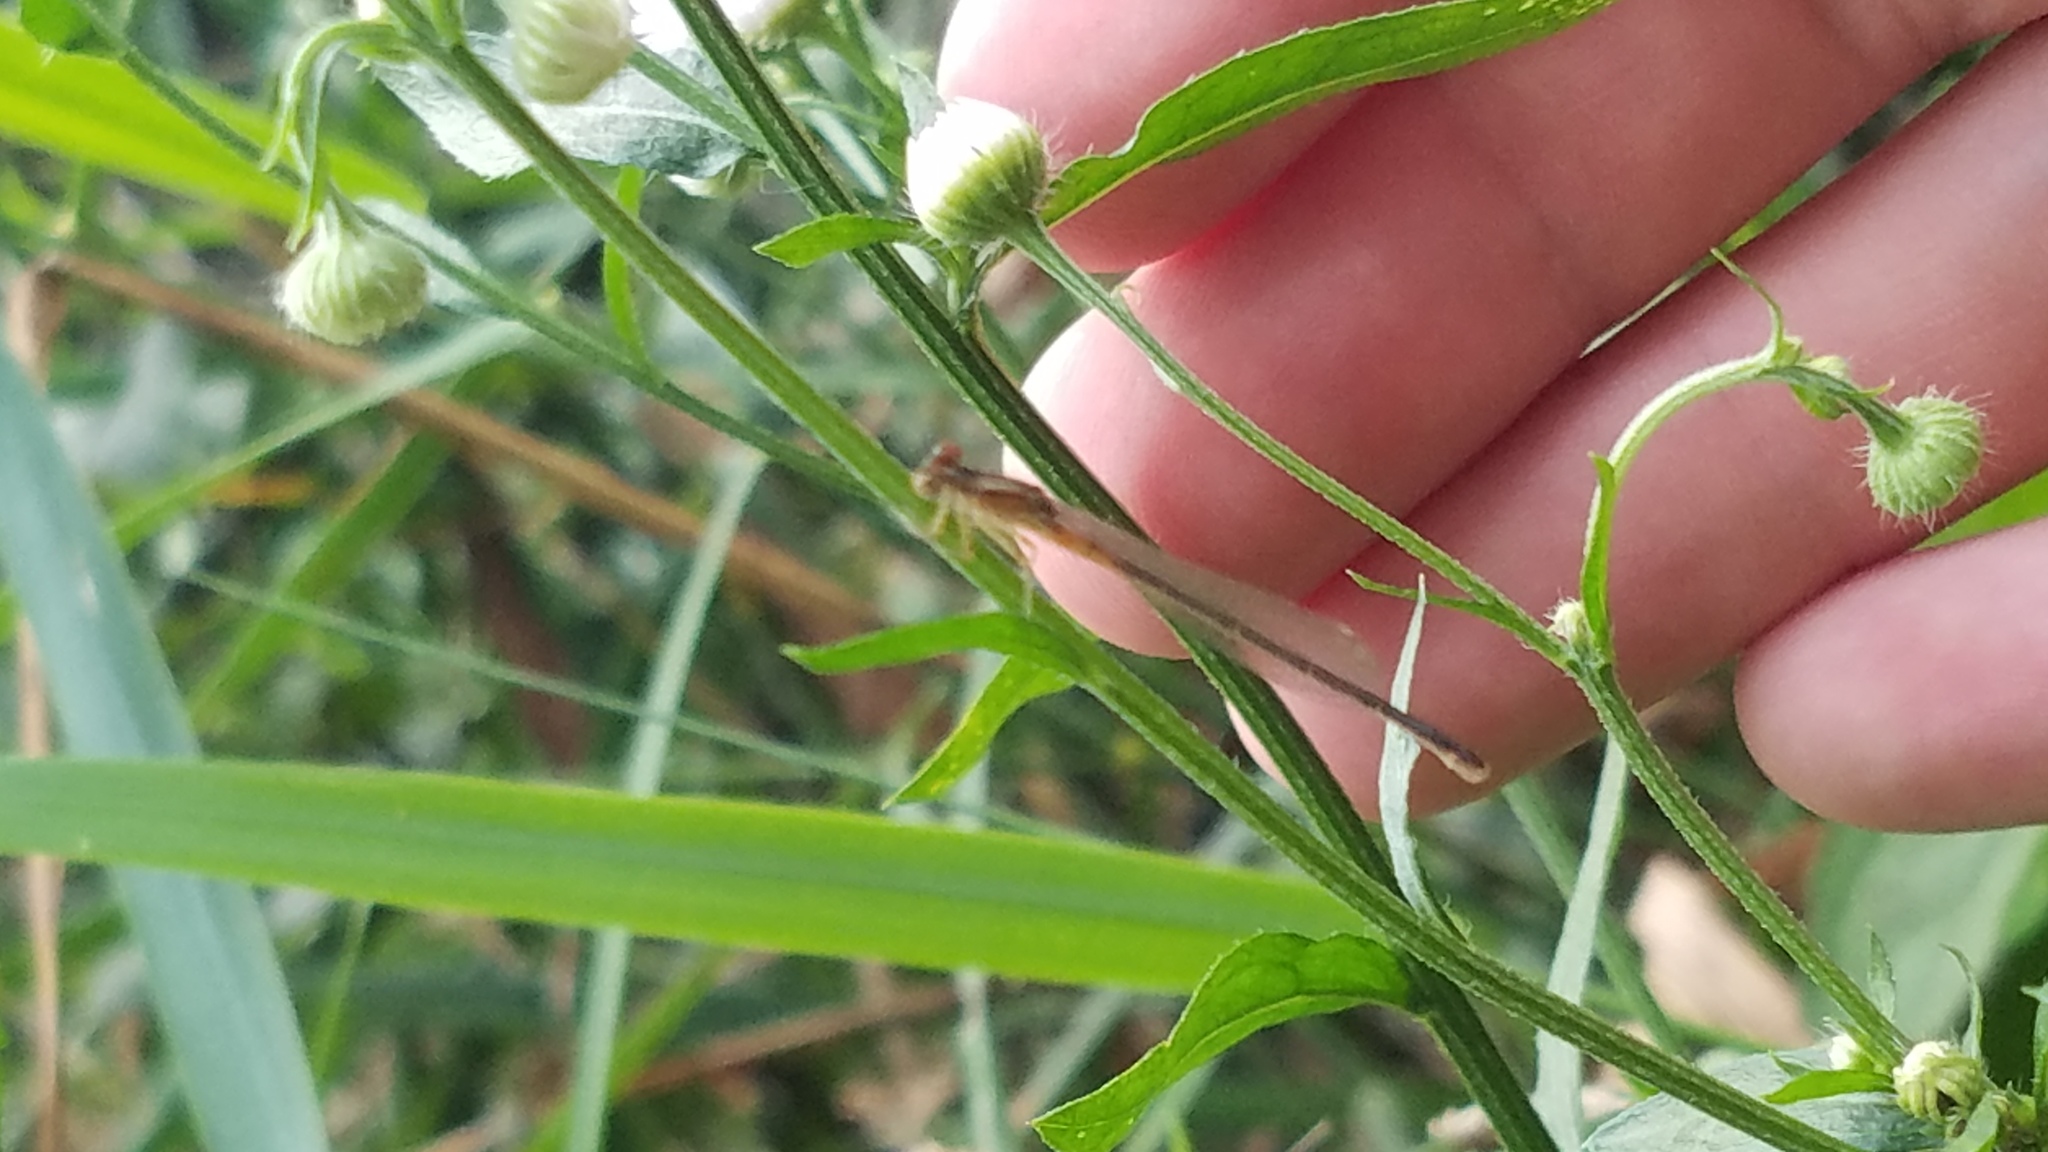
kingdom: Animalia
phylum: Arthropoda
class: Insecta
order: Odonata
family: Coenagrionidae
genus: Ischnura
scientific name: Ischnura verticalis
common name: Eastern forktail
